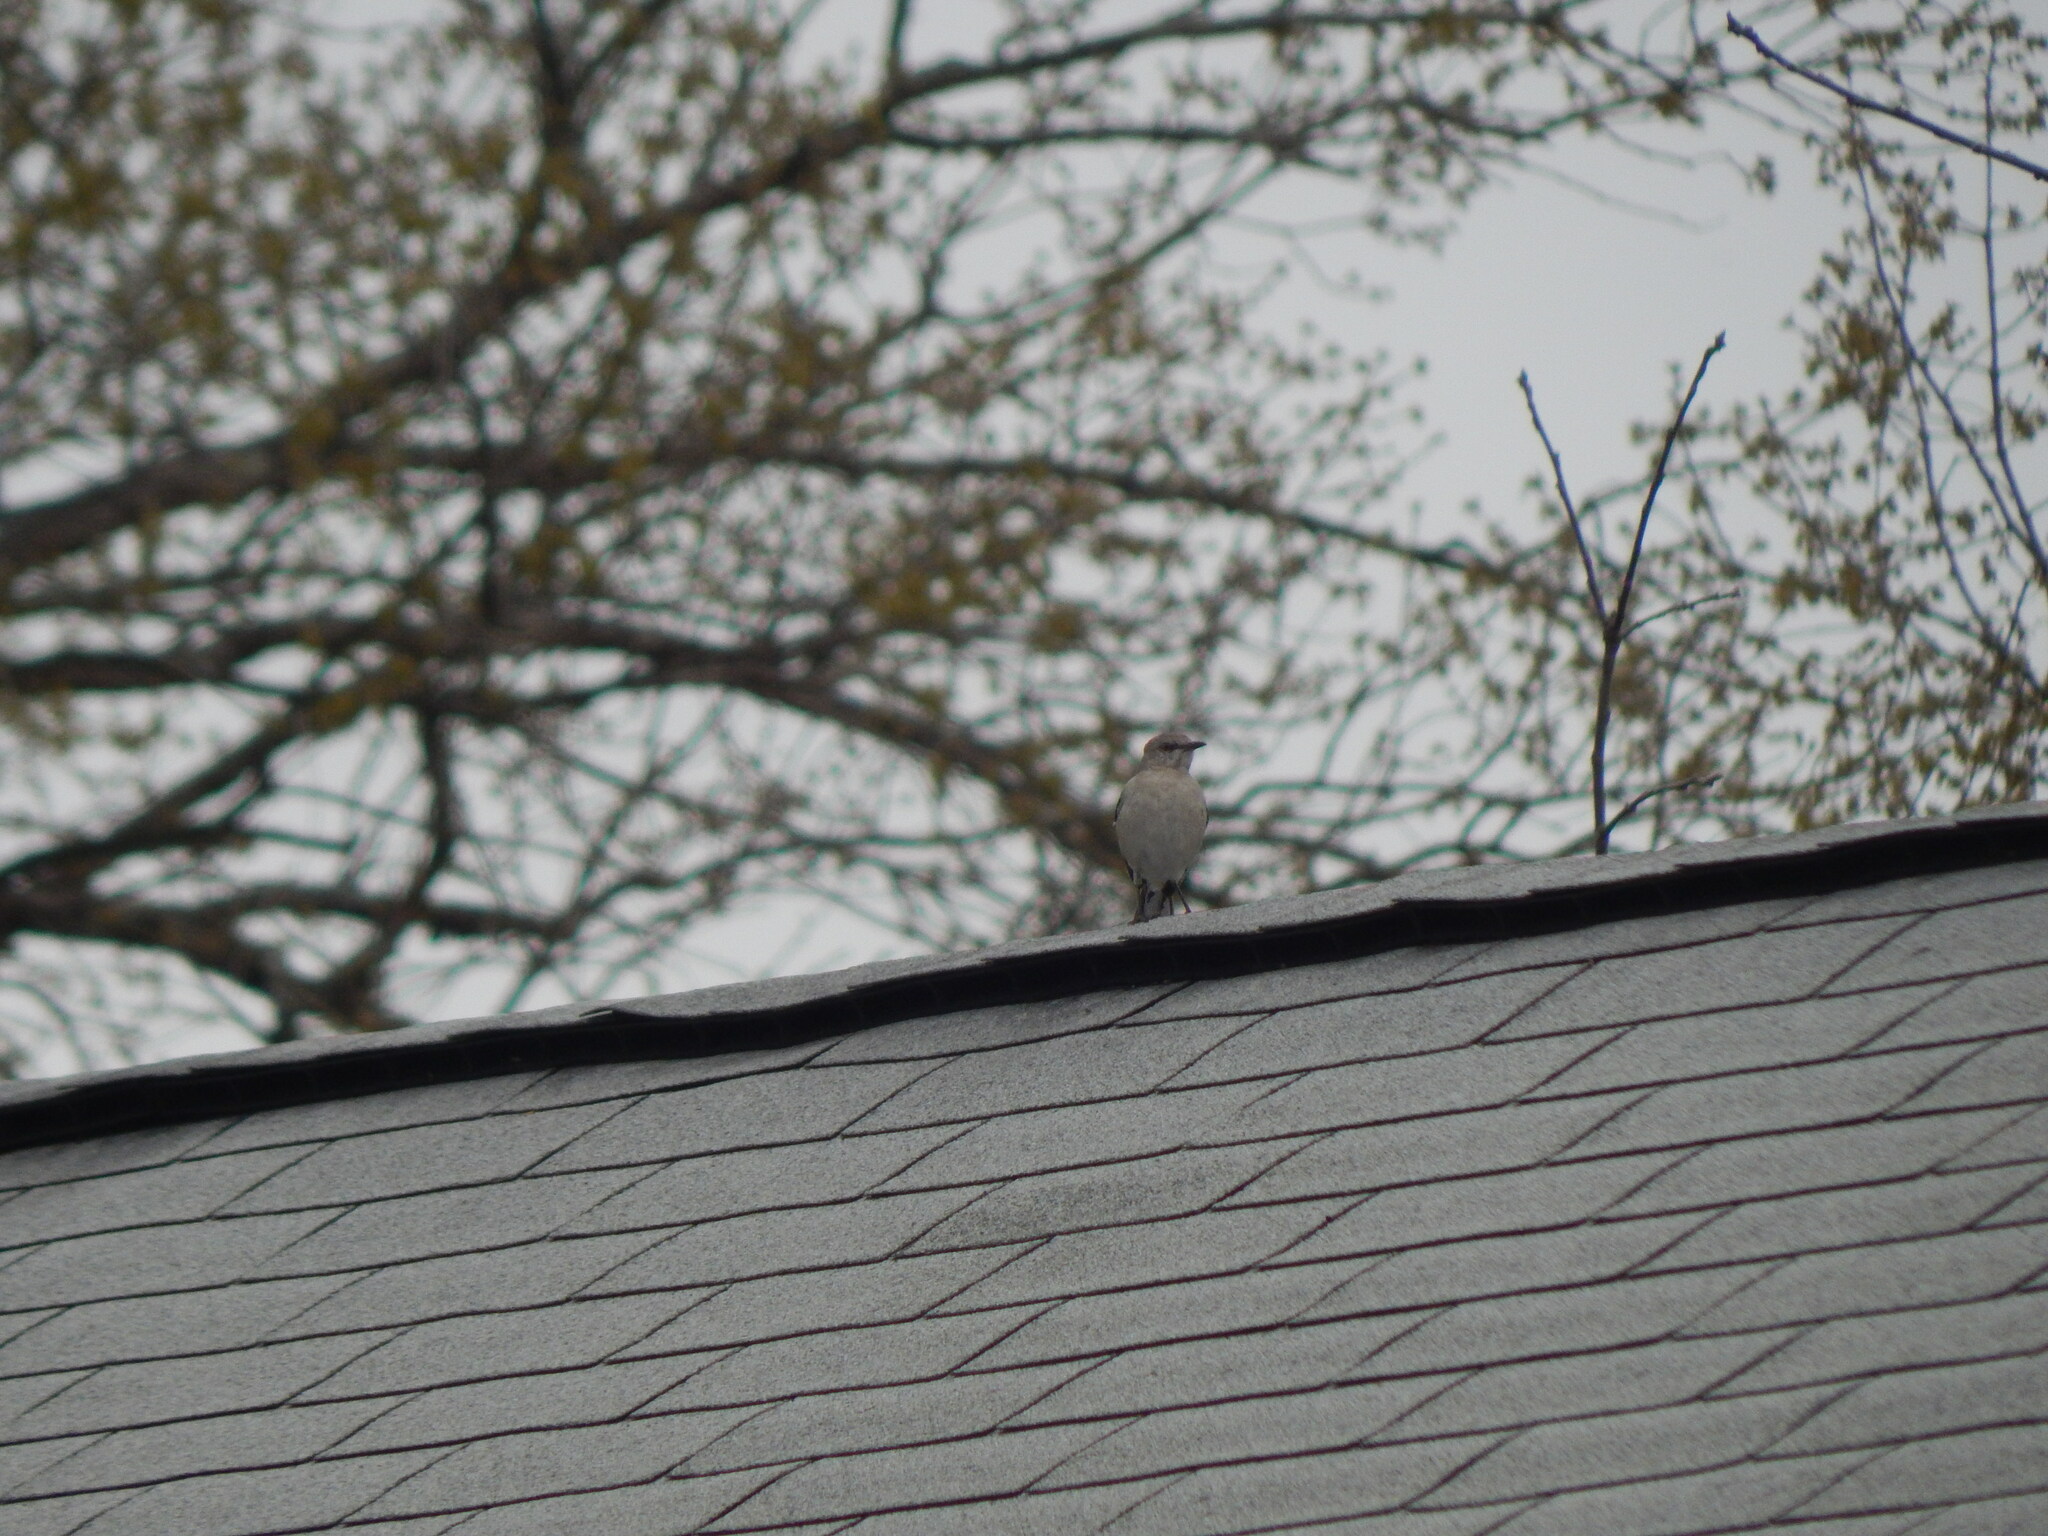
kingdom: Animalia
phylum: Chordata
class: Aves
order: Passeriformes
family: Mimidae
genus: Mimus
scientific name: Mimus polyglottos
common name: Northern mockingbird
